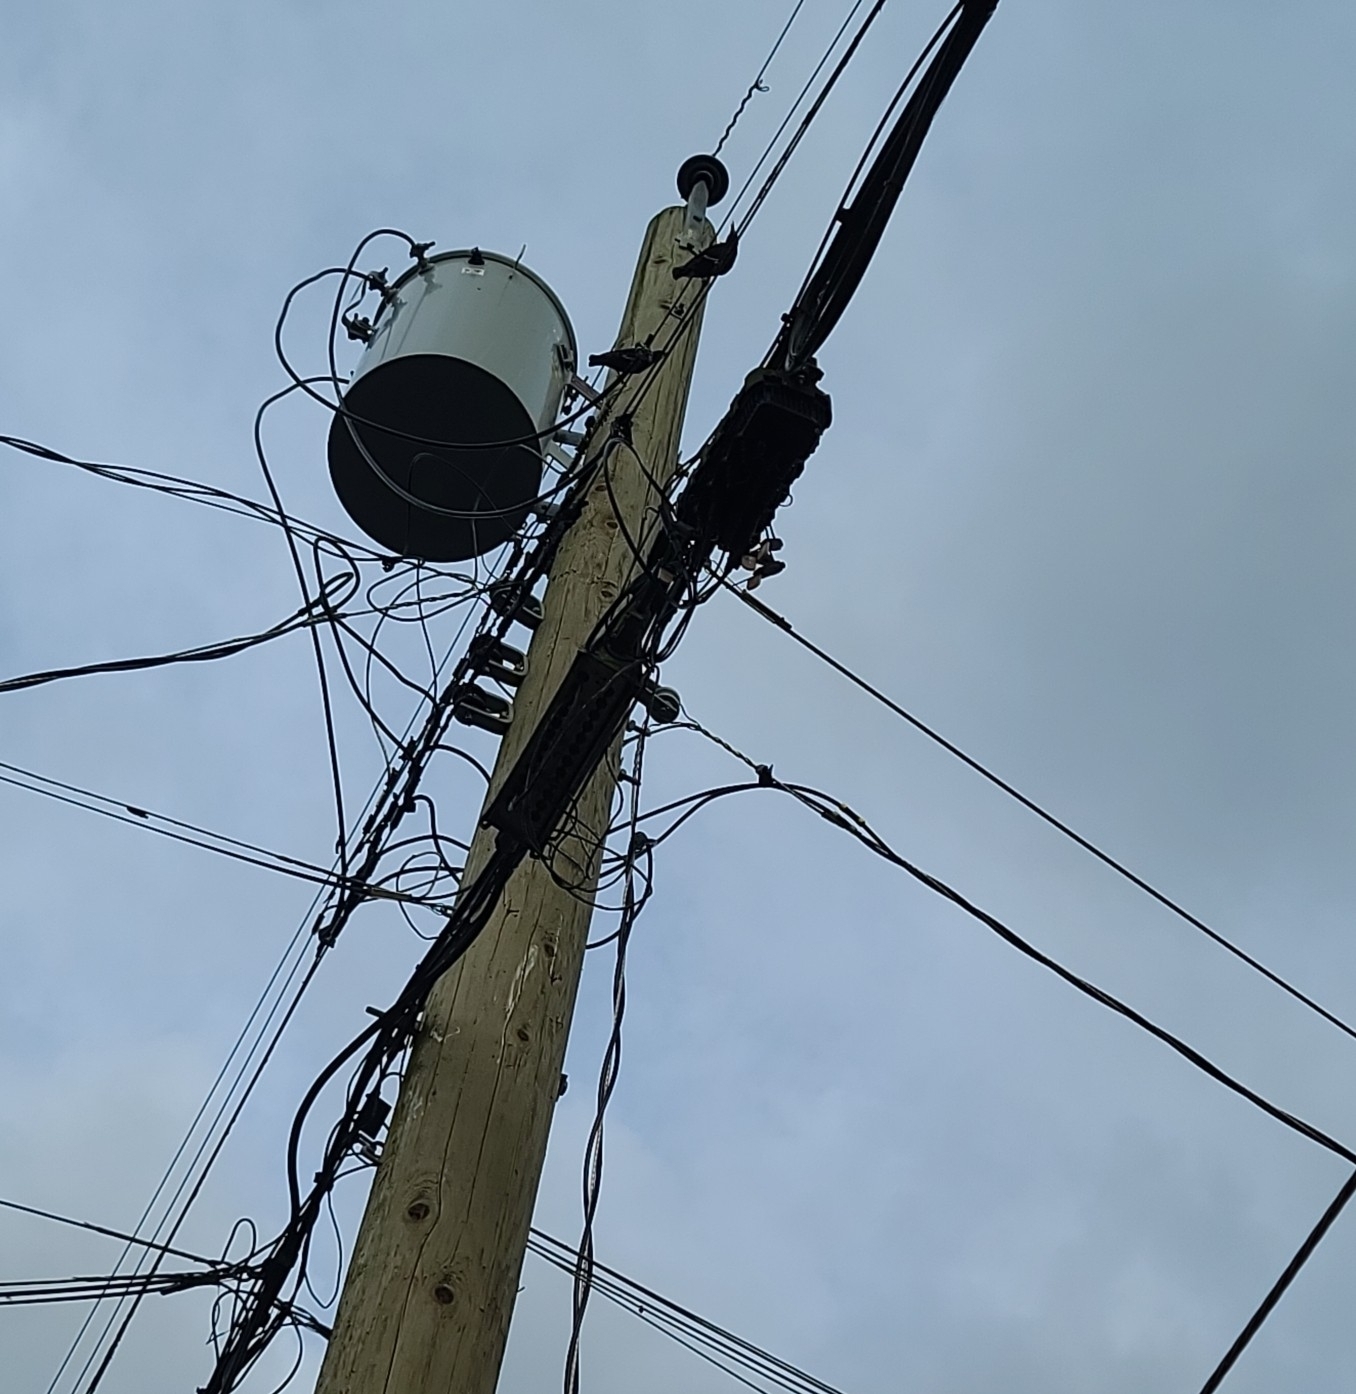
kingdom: Animalia
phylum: Chordata
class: Aves
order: Passeriformes
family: Sturnidae
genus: Sturnus
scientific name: Sturnus vulgaris
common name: Common starling
